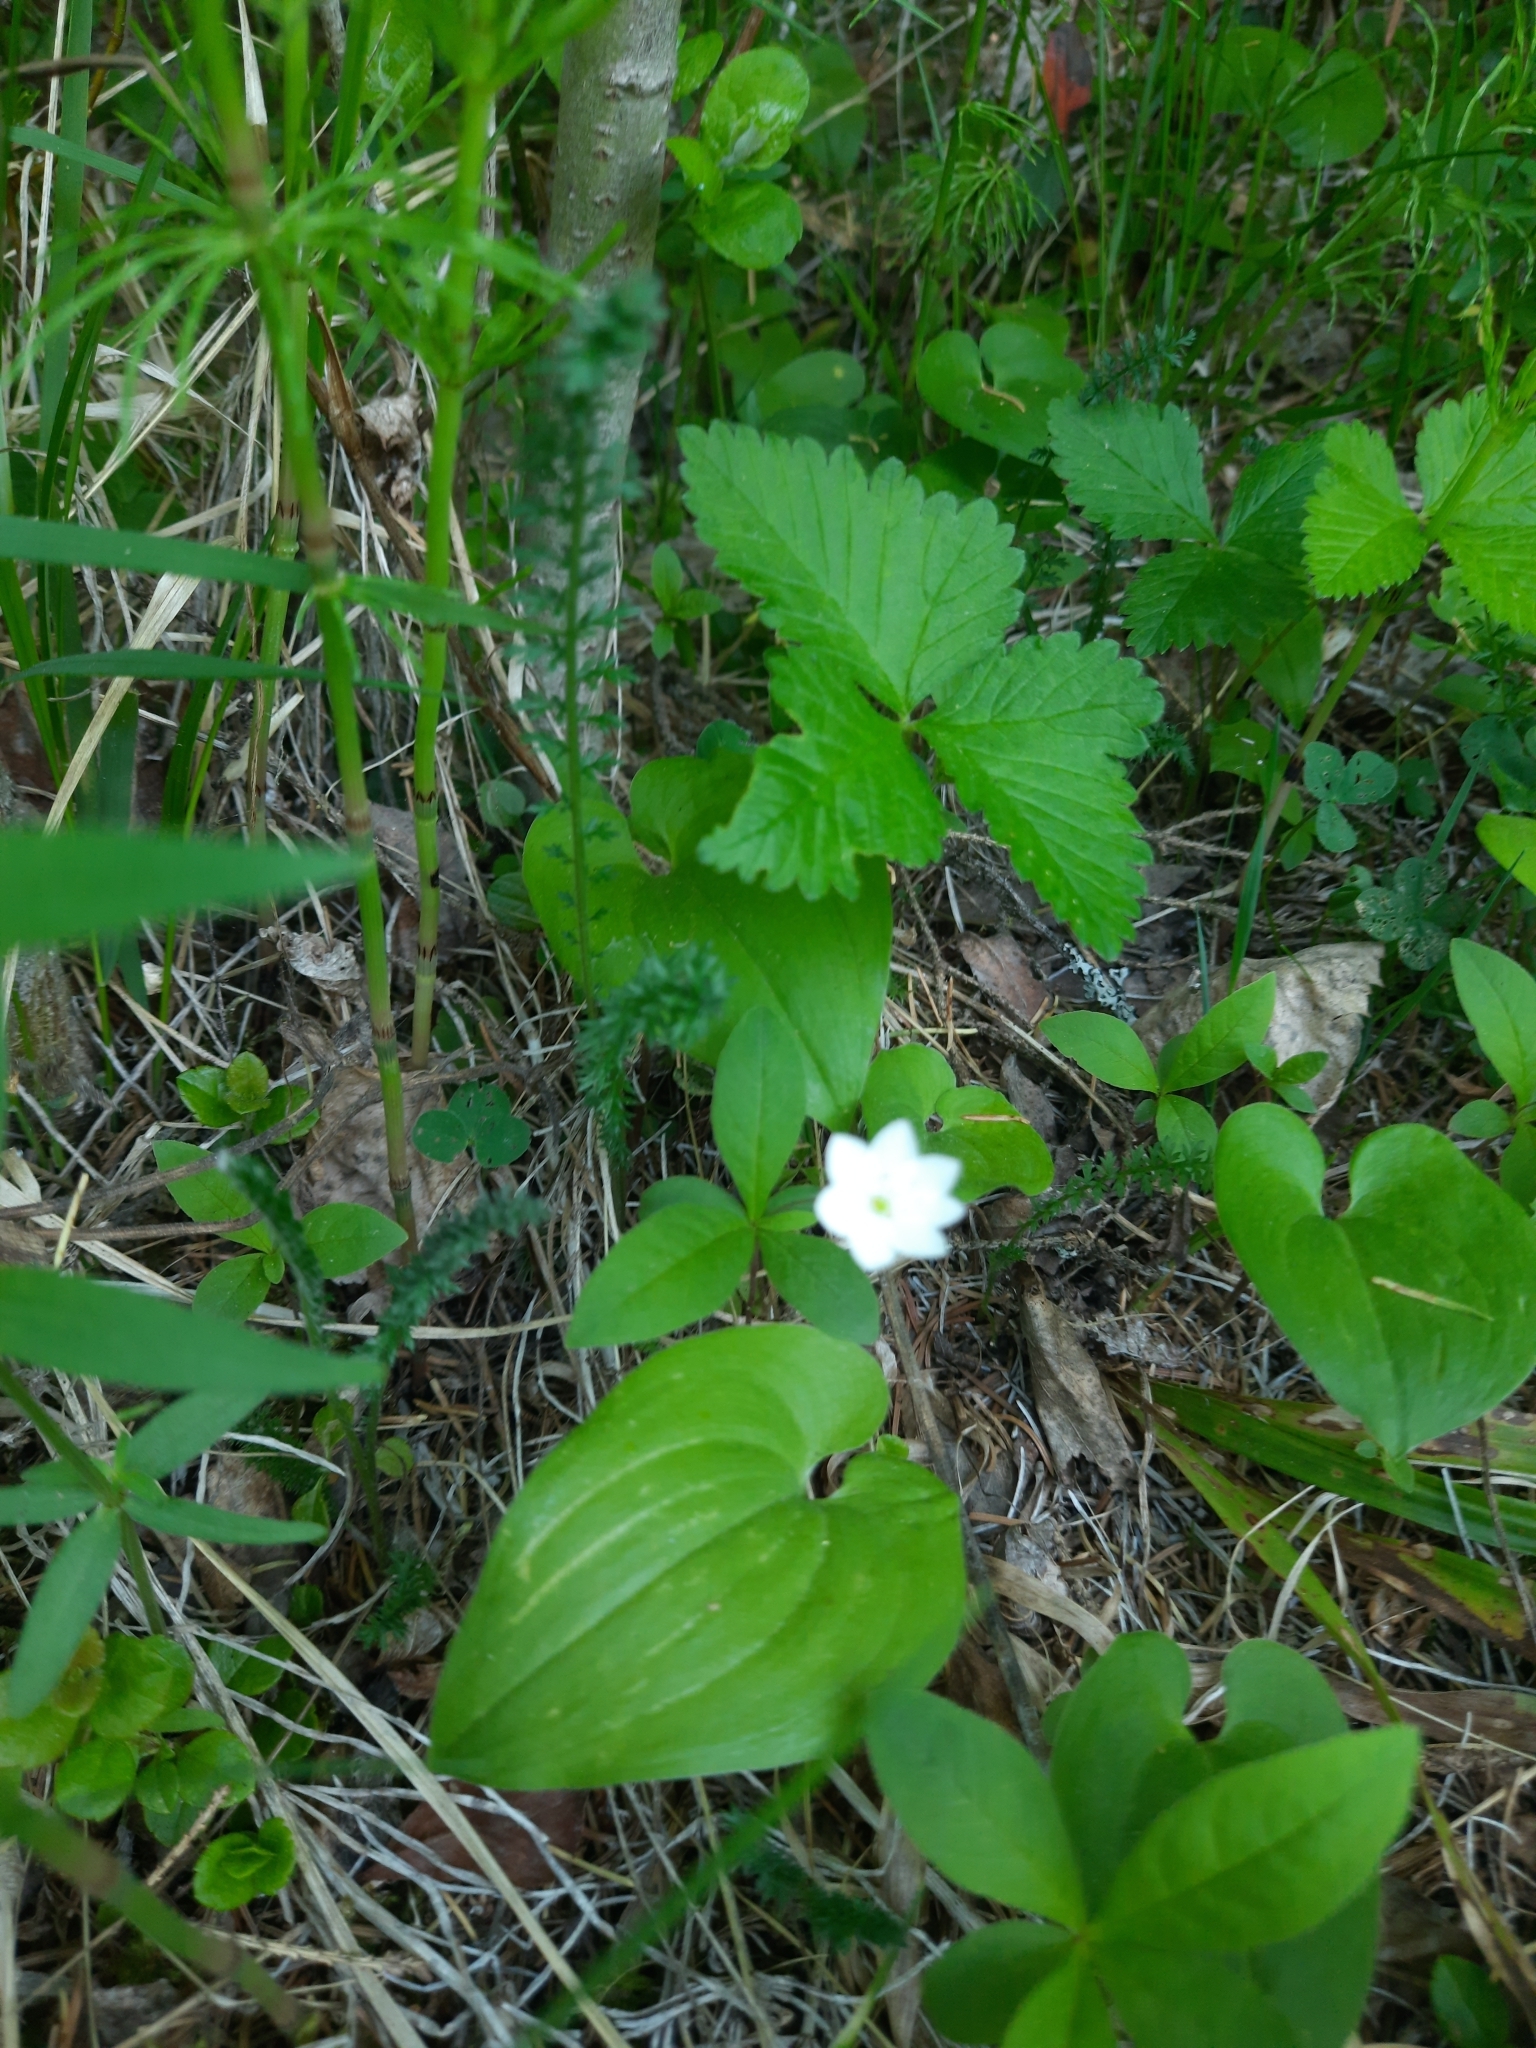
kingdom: Plantae
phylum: Tracheophyta
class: Magnoliopsida
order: Ericales
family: Primulaceae
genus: Lysimachia
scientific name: Lysimachia europaea
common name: Arctic starflower
